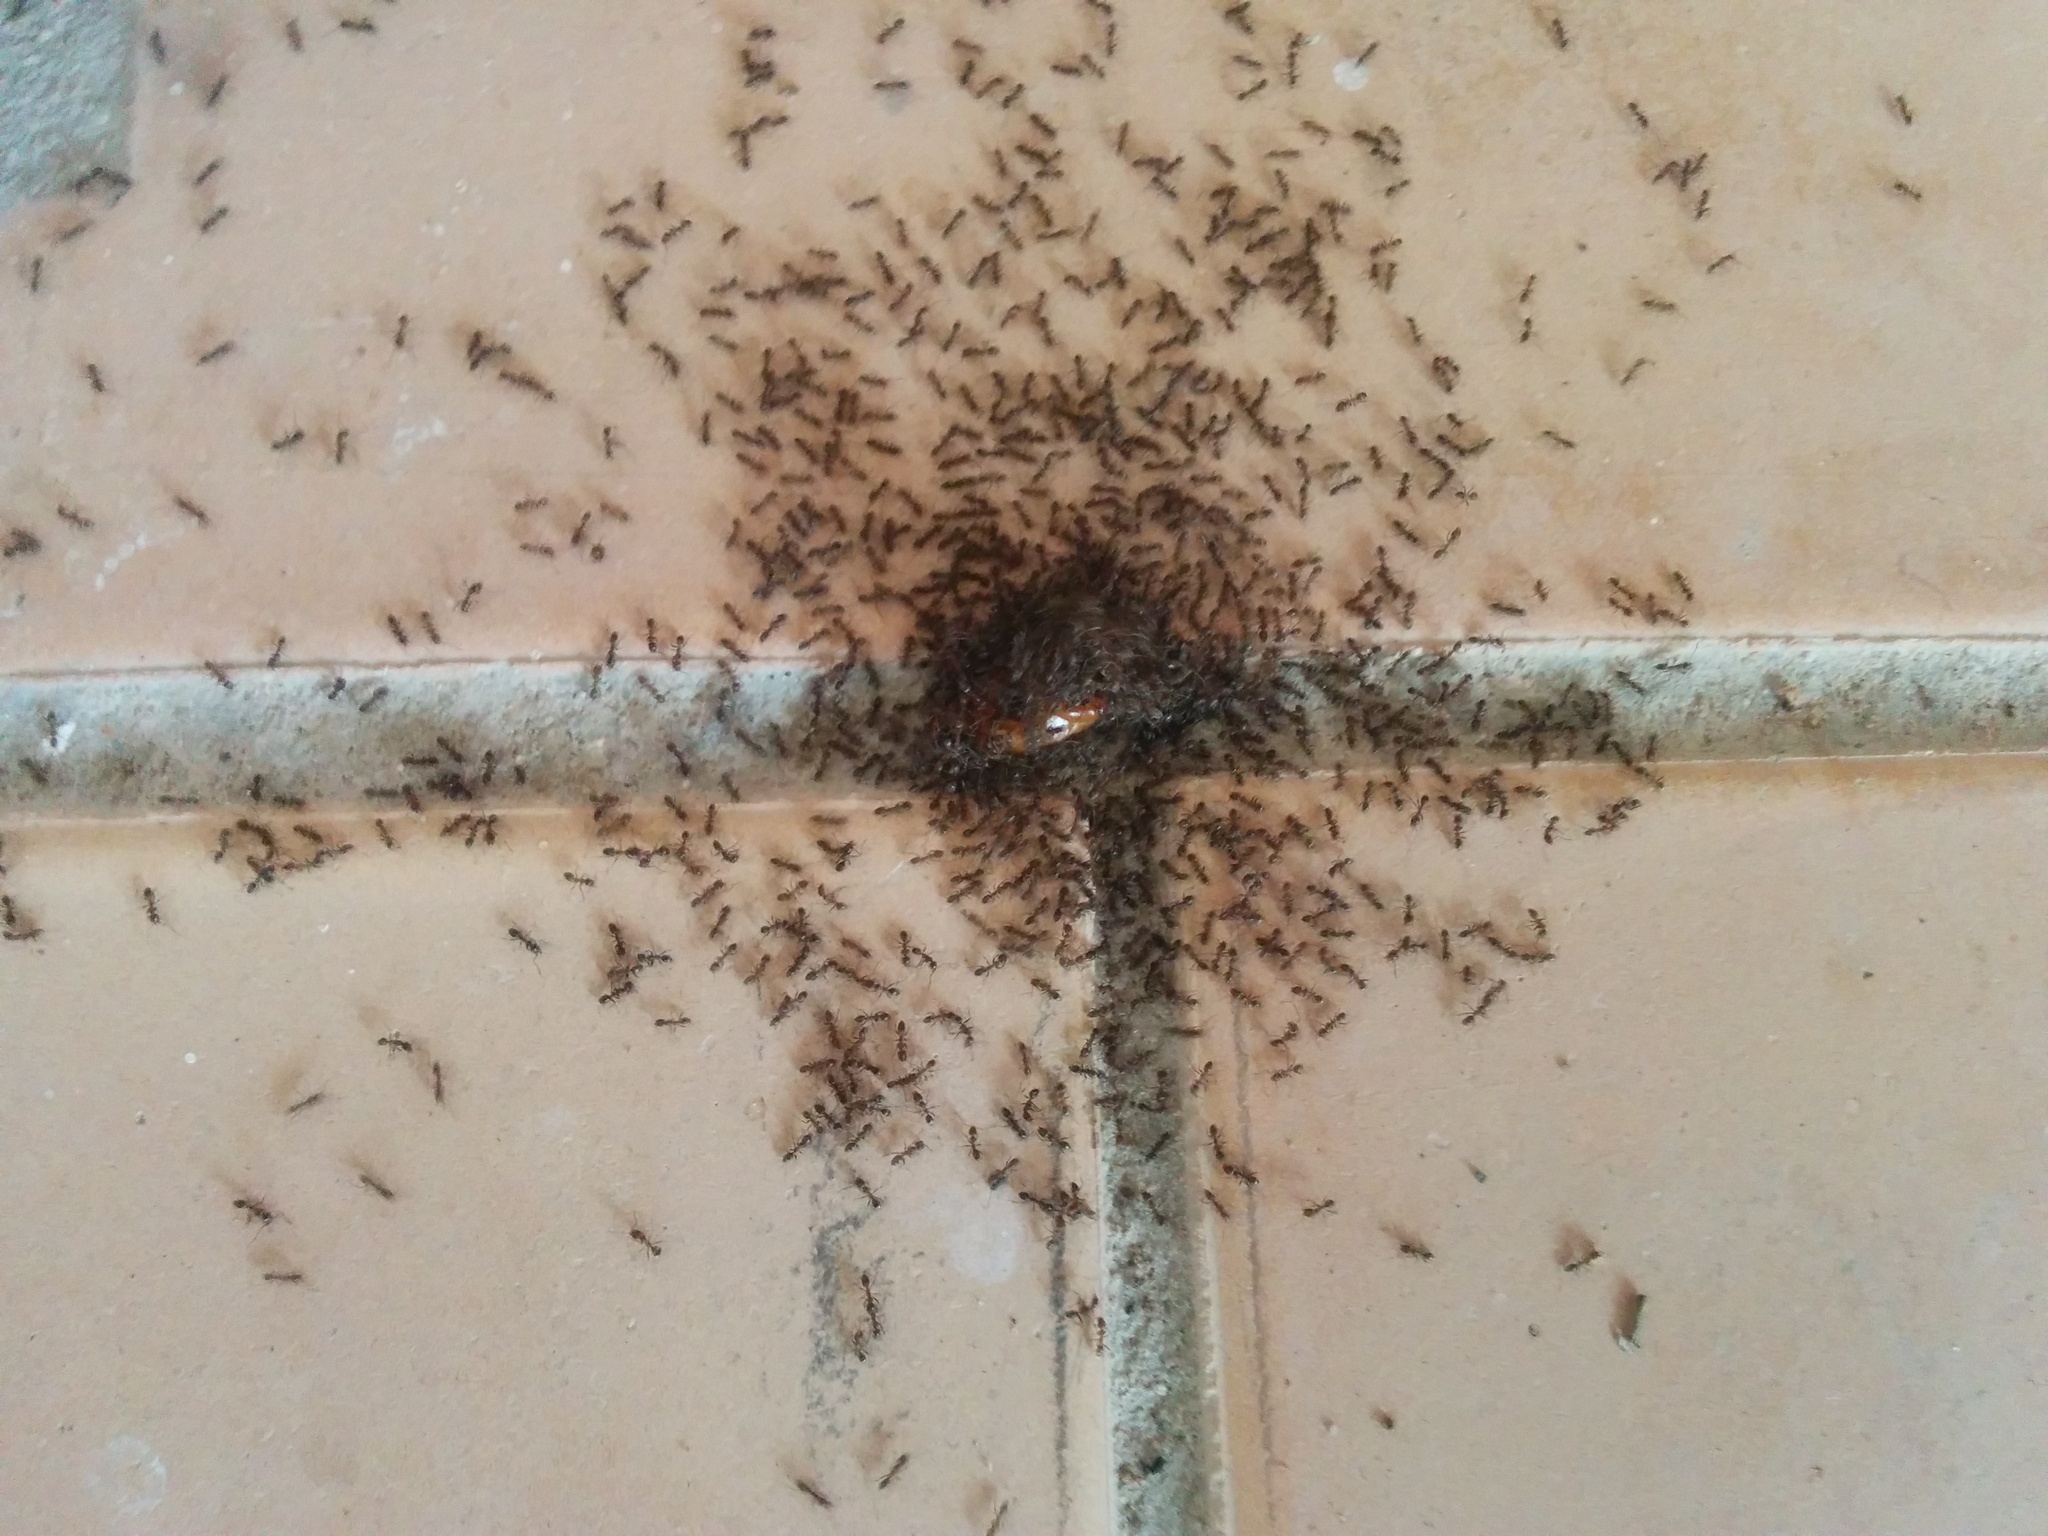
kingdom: Animalia
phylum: Arthropoda
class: Insecta
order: Hymenoptera
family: Formicidae
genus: Linepithema
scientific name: Linepithema humile
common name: Argentine ant
